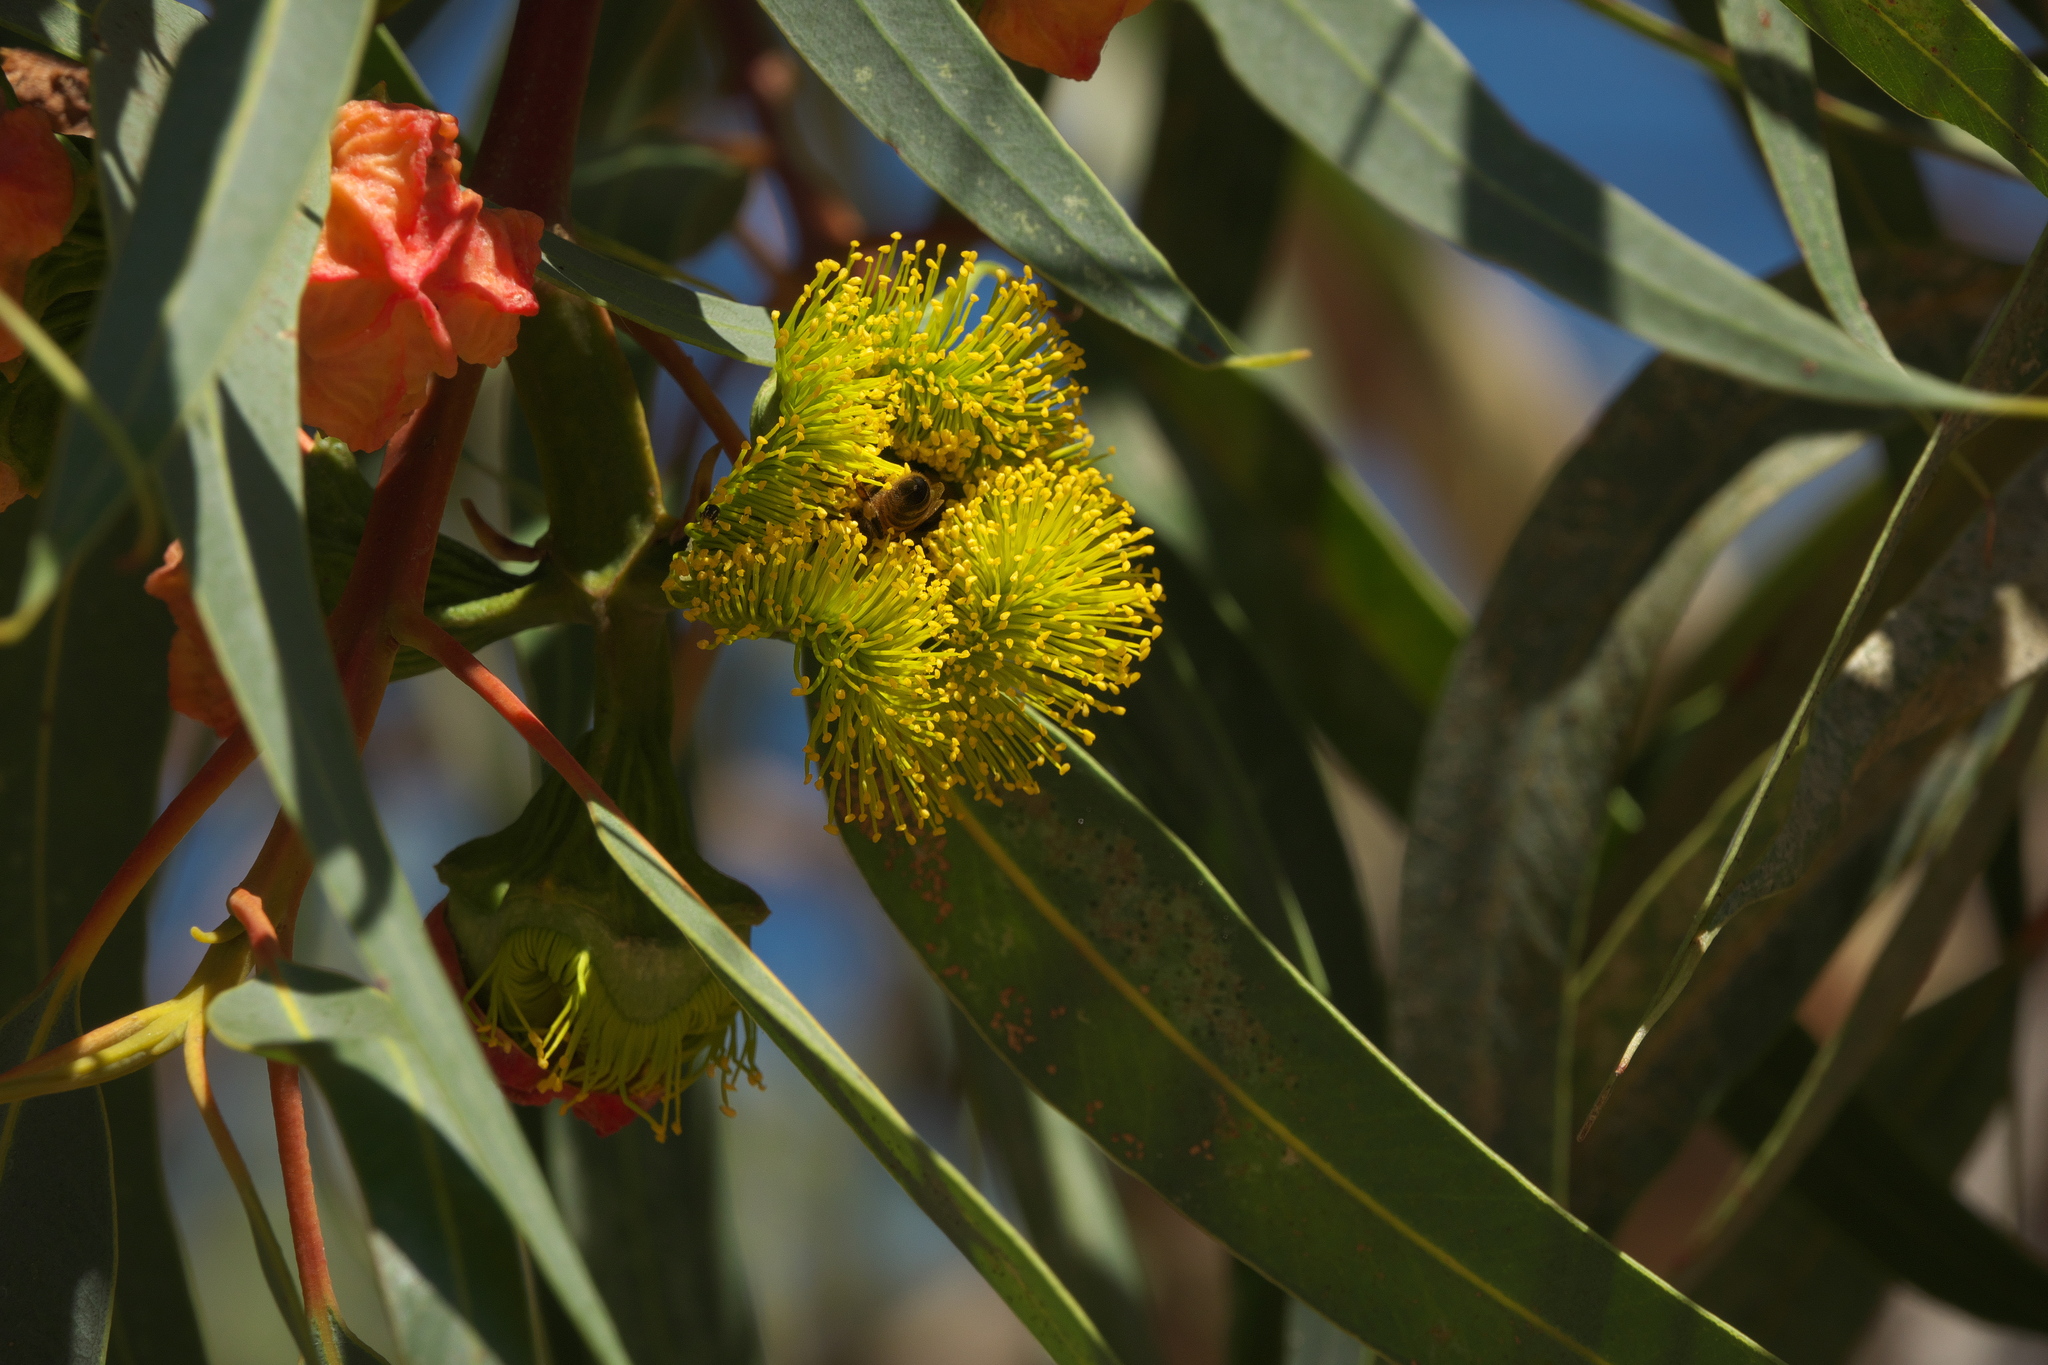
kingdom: Plantae
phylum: Tracheophyta
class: Magnoliopsida
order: Myrtales
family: Myrtaceae
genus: Eucalyptus
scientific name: Eucalyptus erythrocorys
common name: Bookara gum
